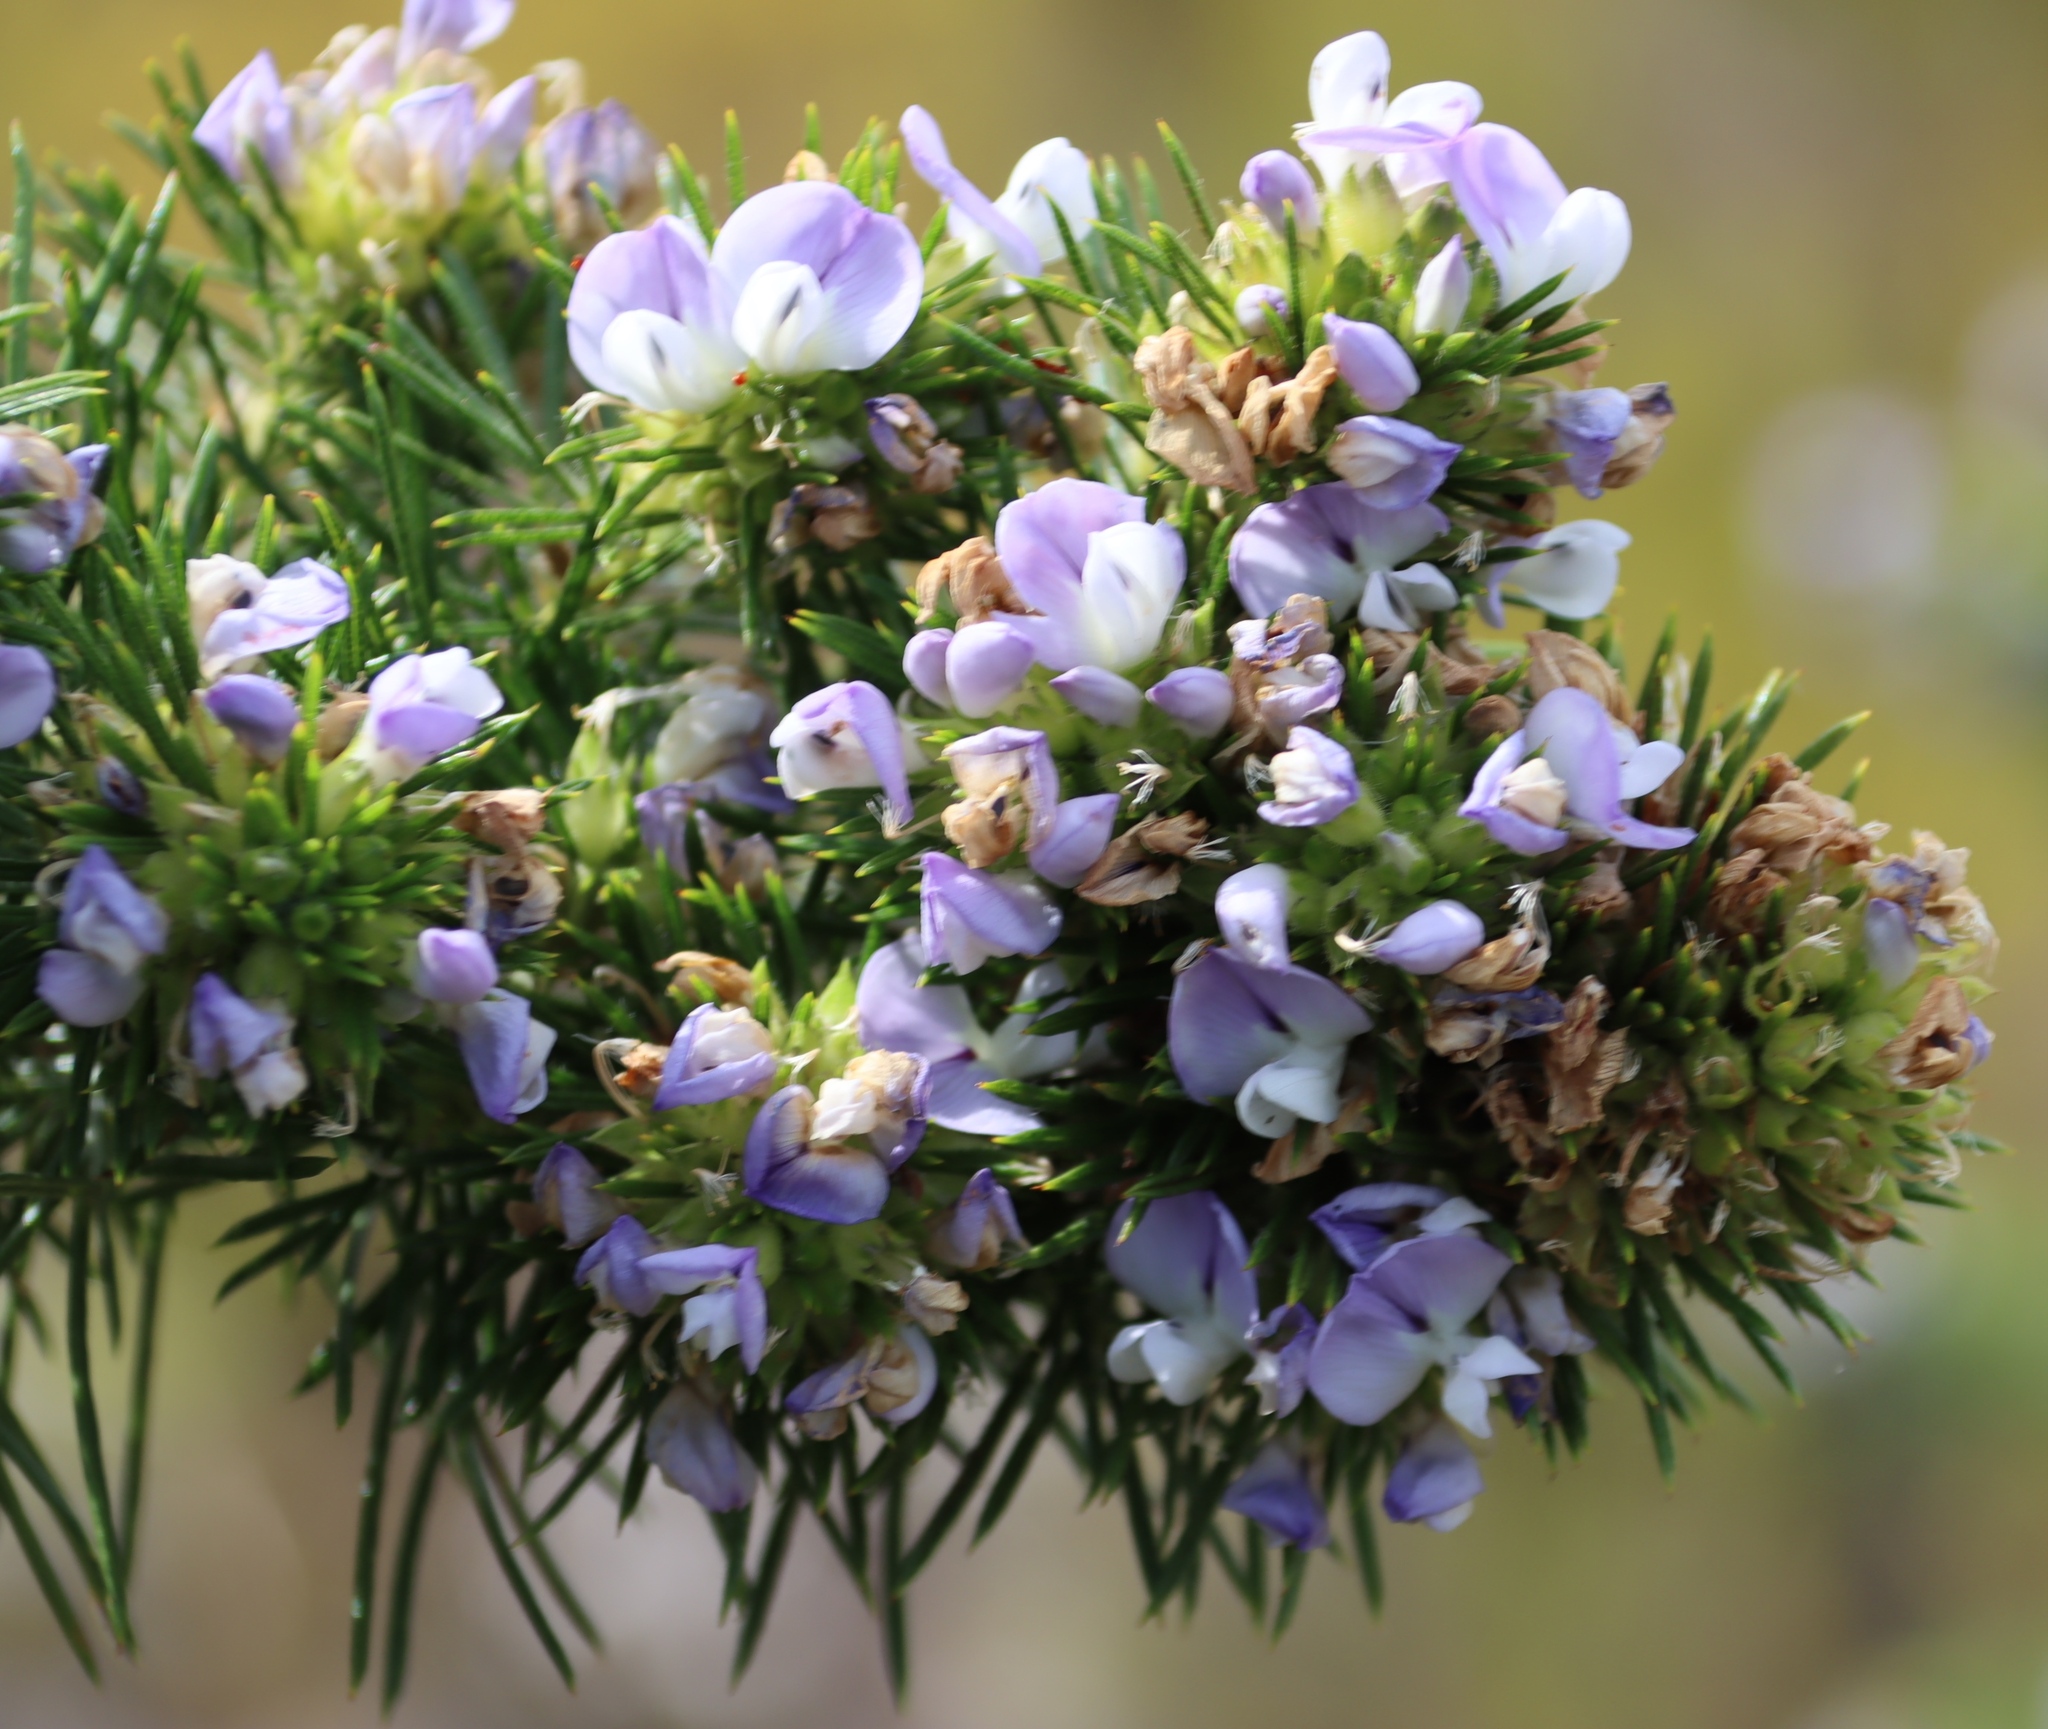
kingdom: Plantae
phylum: Tracheophyta
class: Magnoliopsida
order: Fabales
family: Fabaceae
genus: Psoralea
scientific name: Psoralea pinnata
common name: African scurfpea
